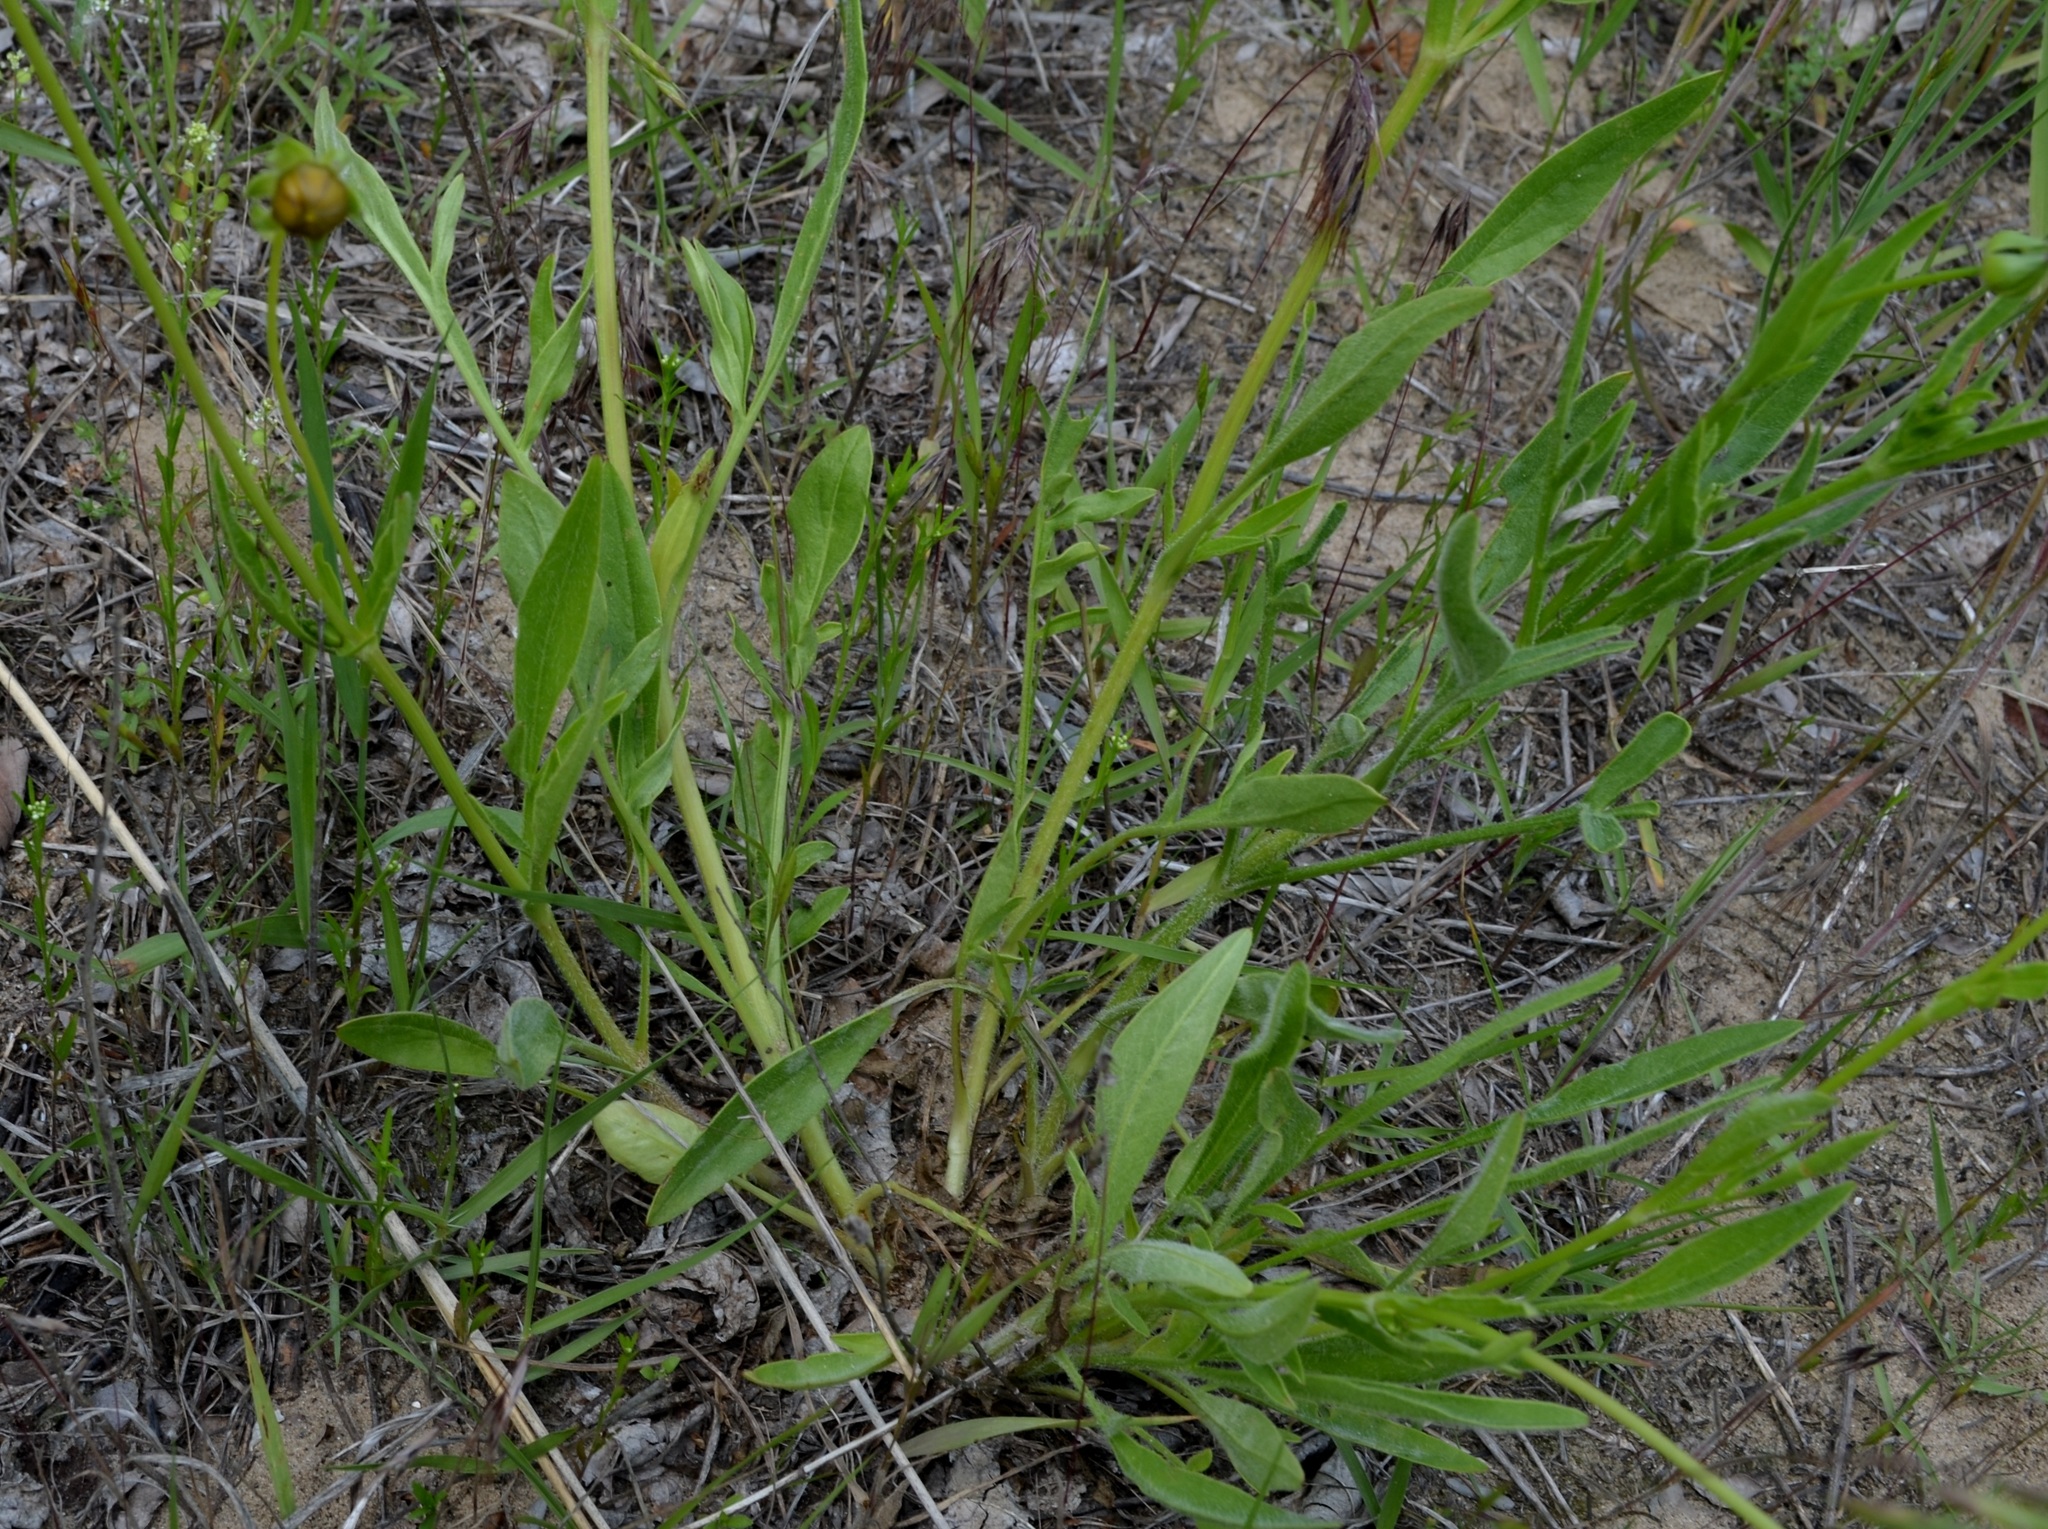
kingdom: Plantae
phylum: Tracheophyta
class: Magnoliopsida
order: Asterales
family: Asteraceae
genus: Coreopsis
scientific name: Coreopsis lanceolata
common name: Garden coreopsis
